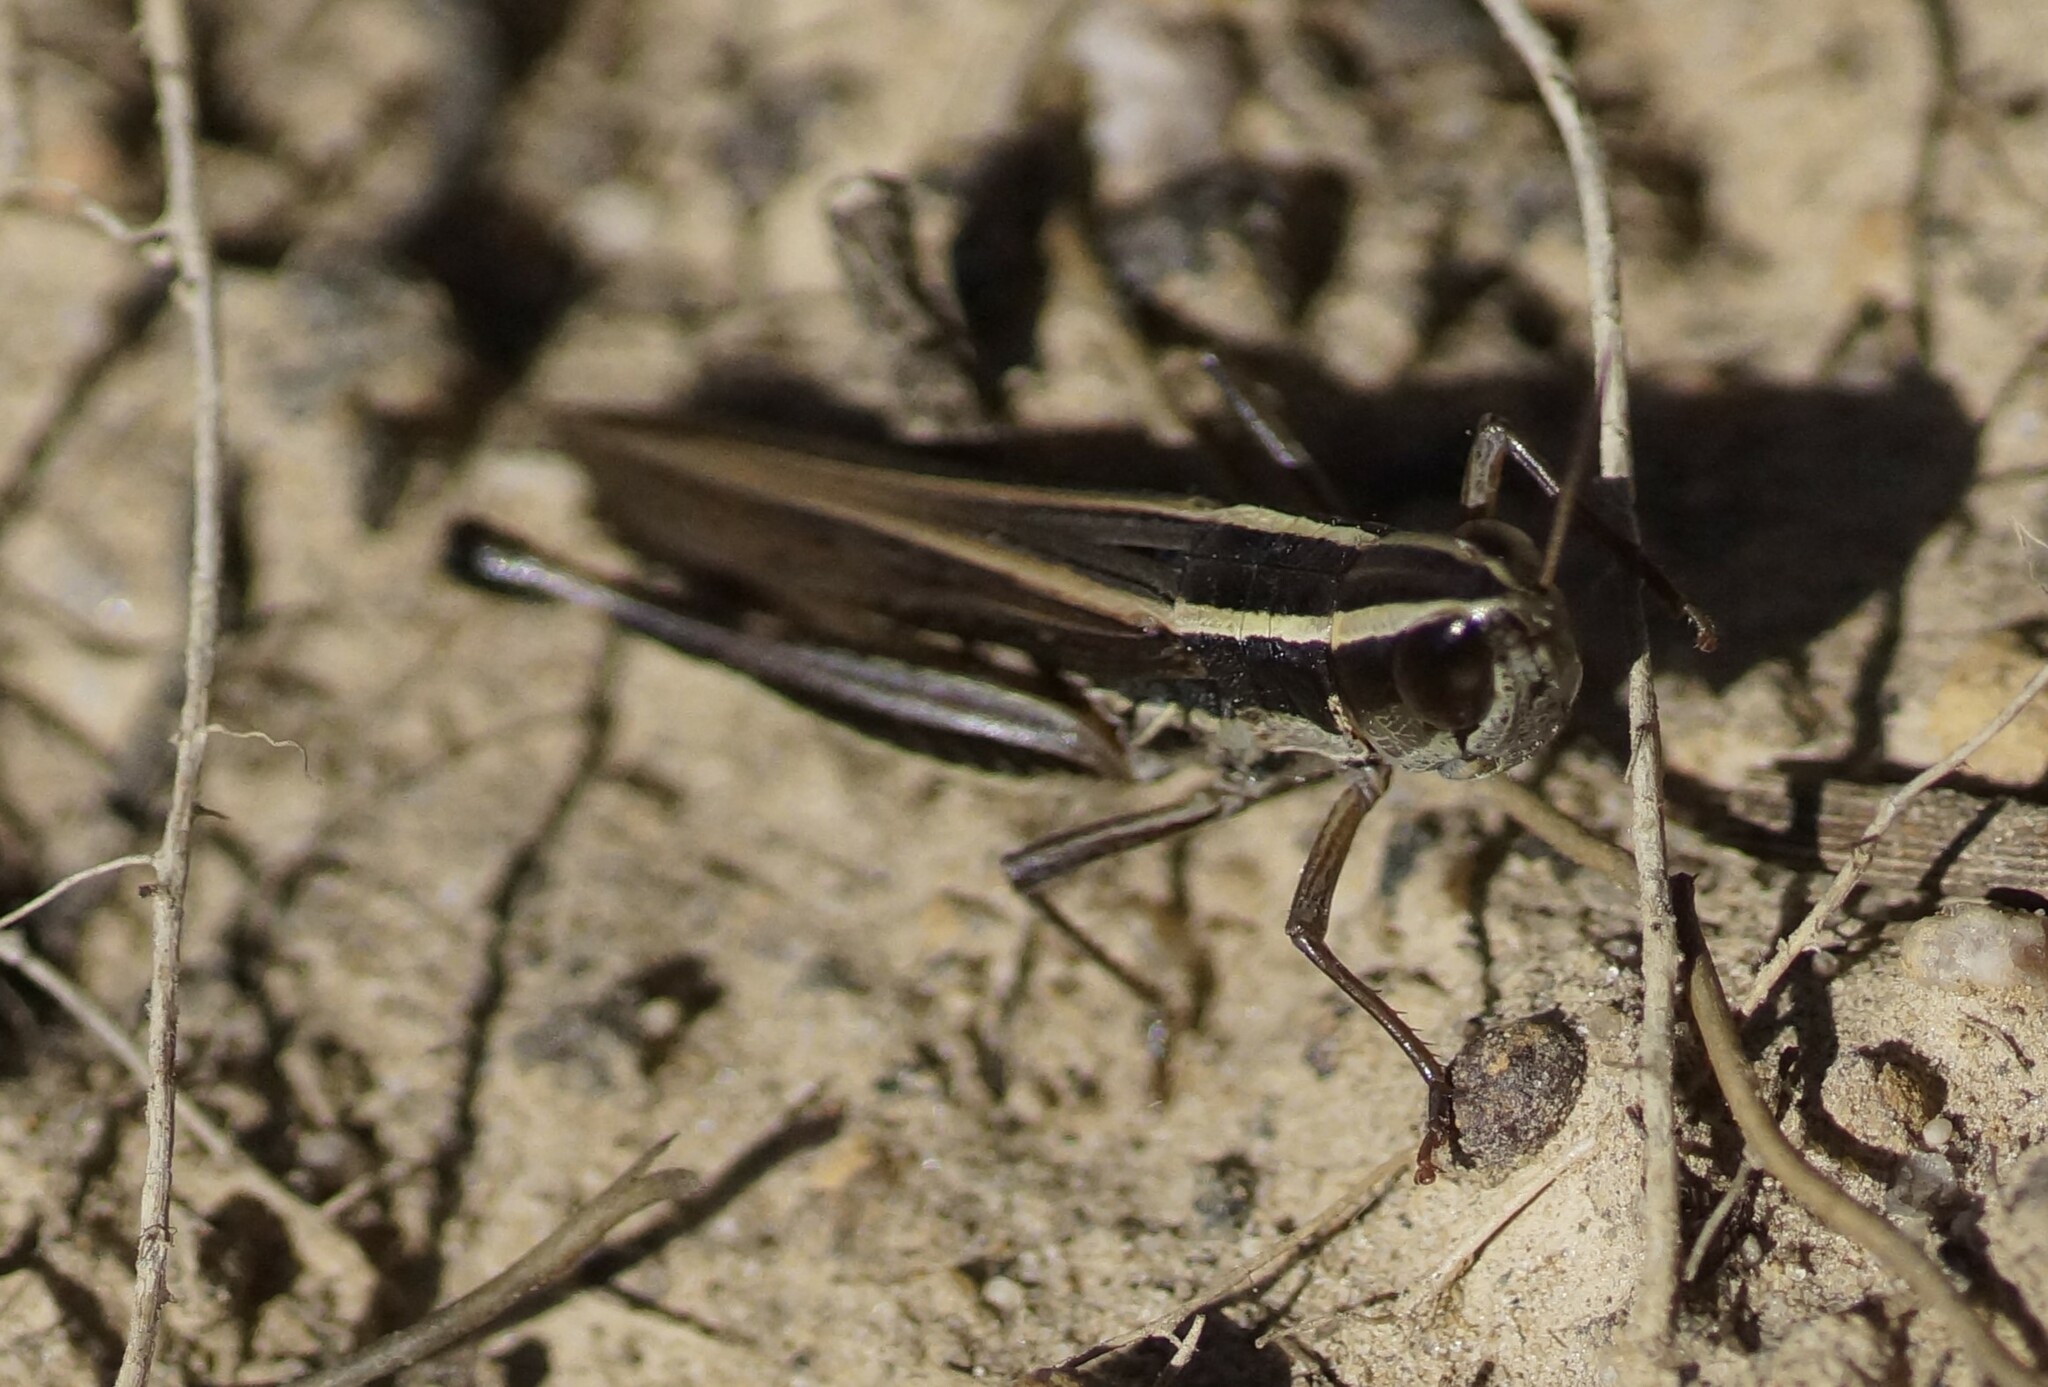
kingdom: Animalia
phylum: Arthropoda
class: Insecta
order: Orthoptera
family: Acrididae
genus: Macrotona
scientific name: Macrotona securiformis
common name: Inland macrotona
